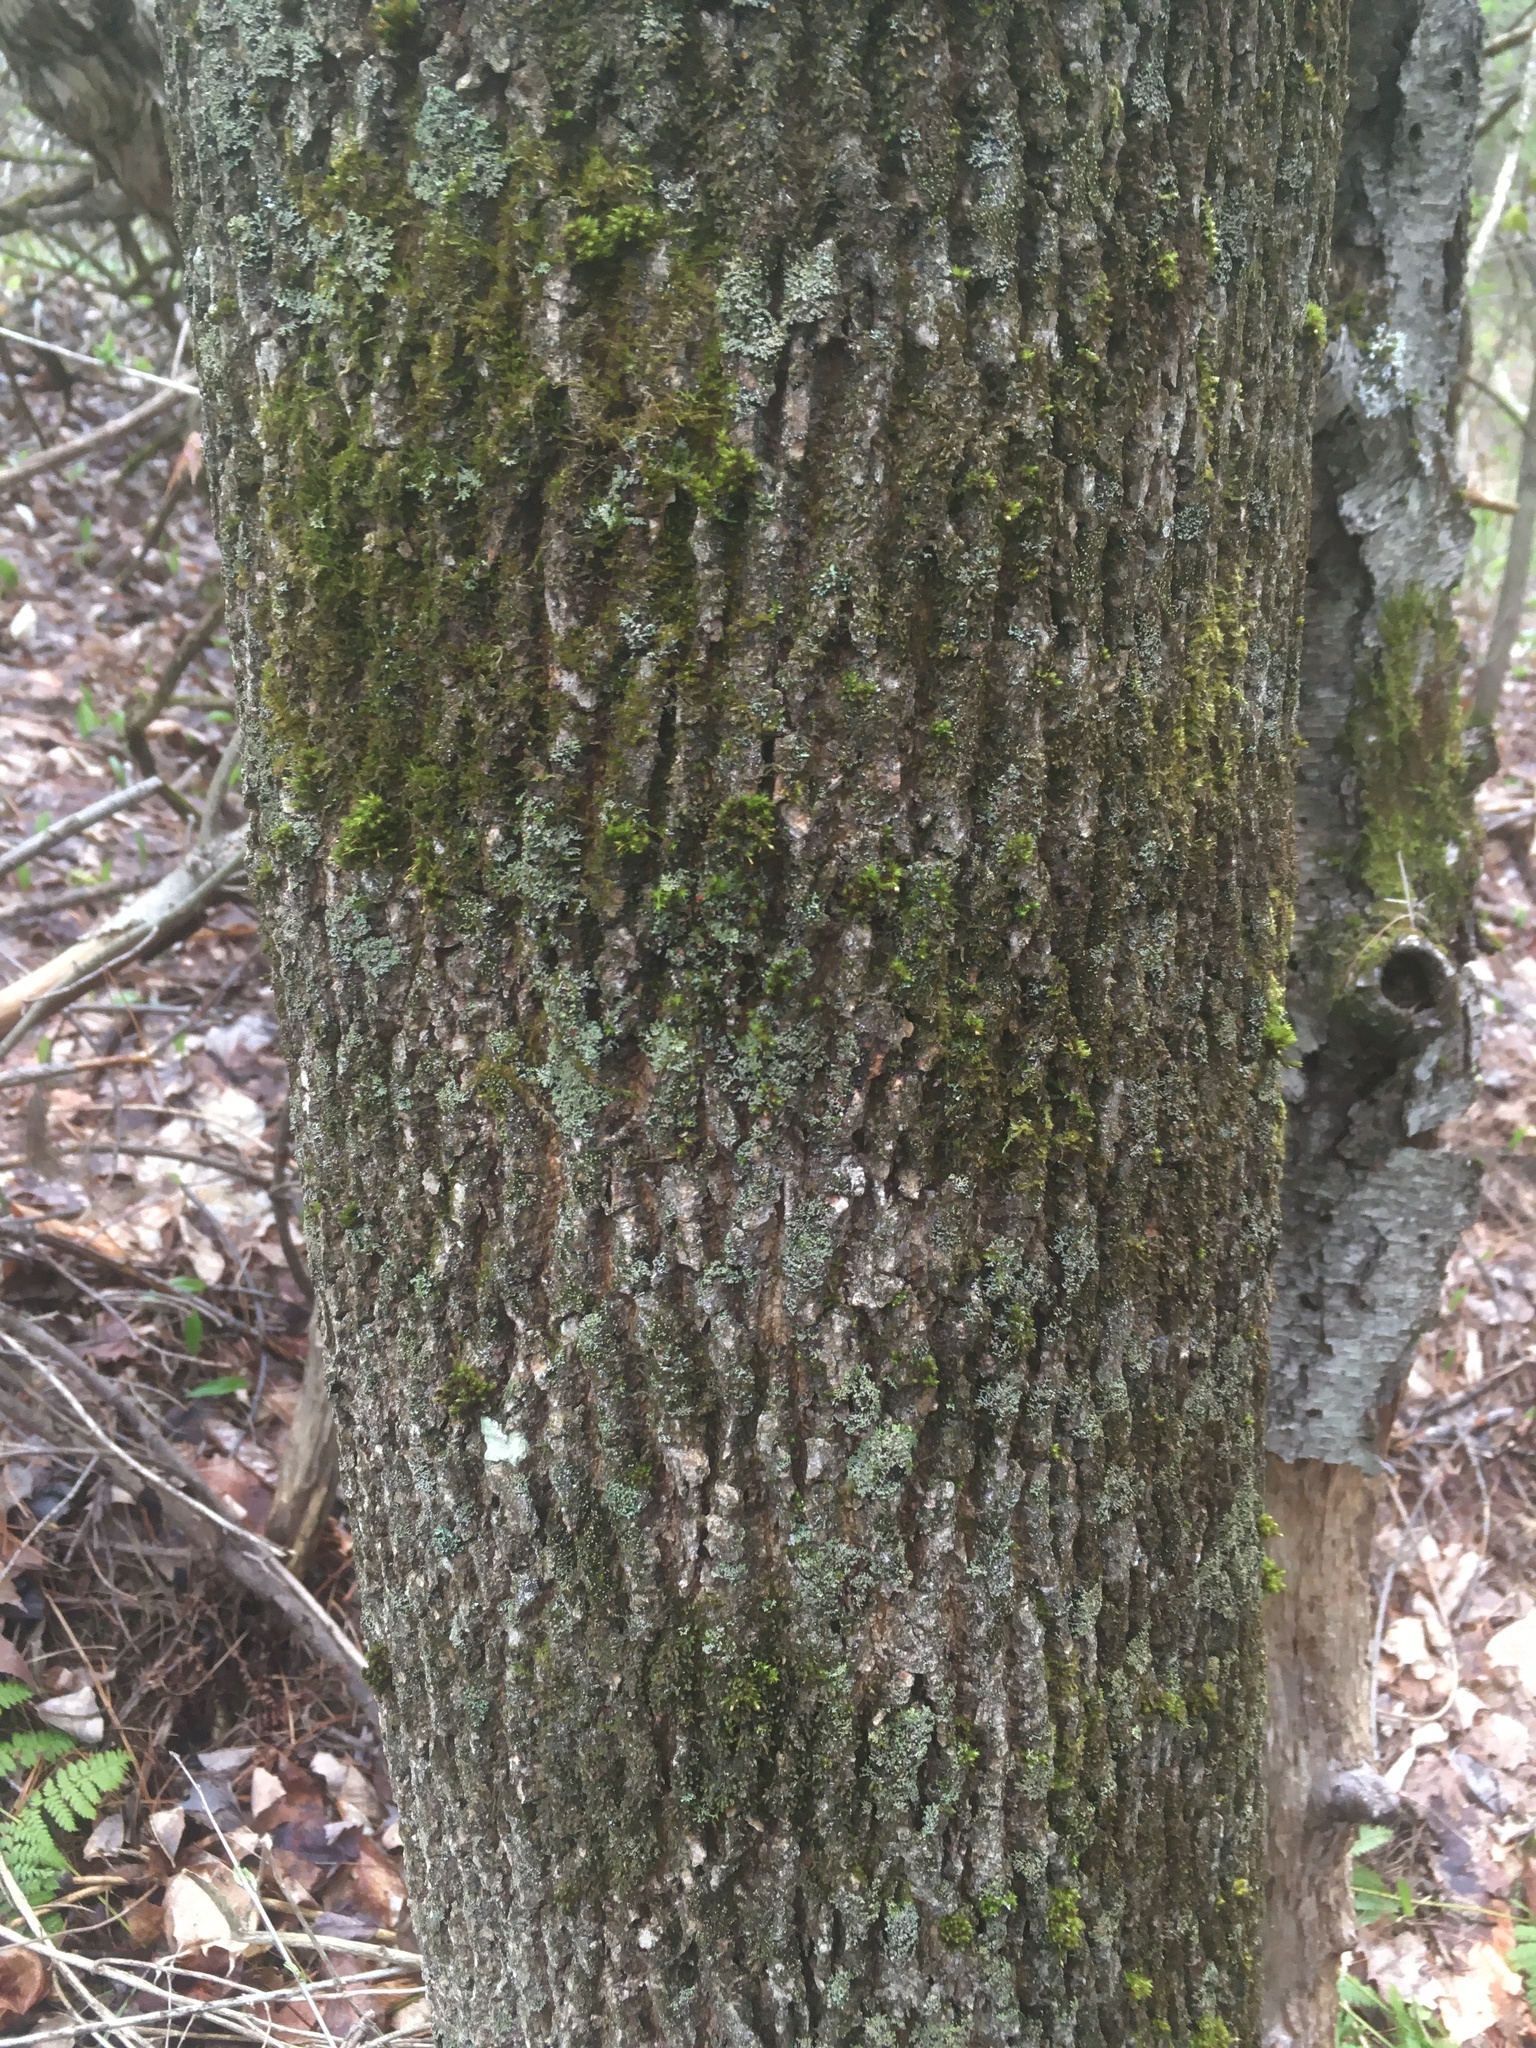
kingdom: Plantae
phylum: Tracheophyta
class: Magnoliopsida
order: Lamiales
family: Oleaceae
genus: Fraxinus
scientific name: Fraxinus americana
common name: White ash
